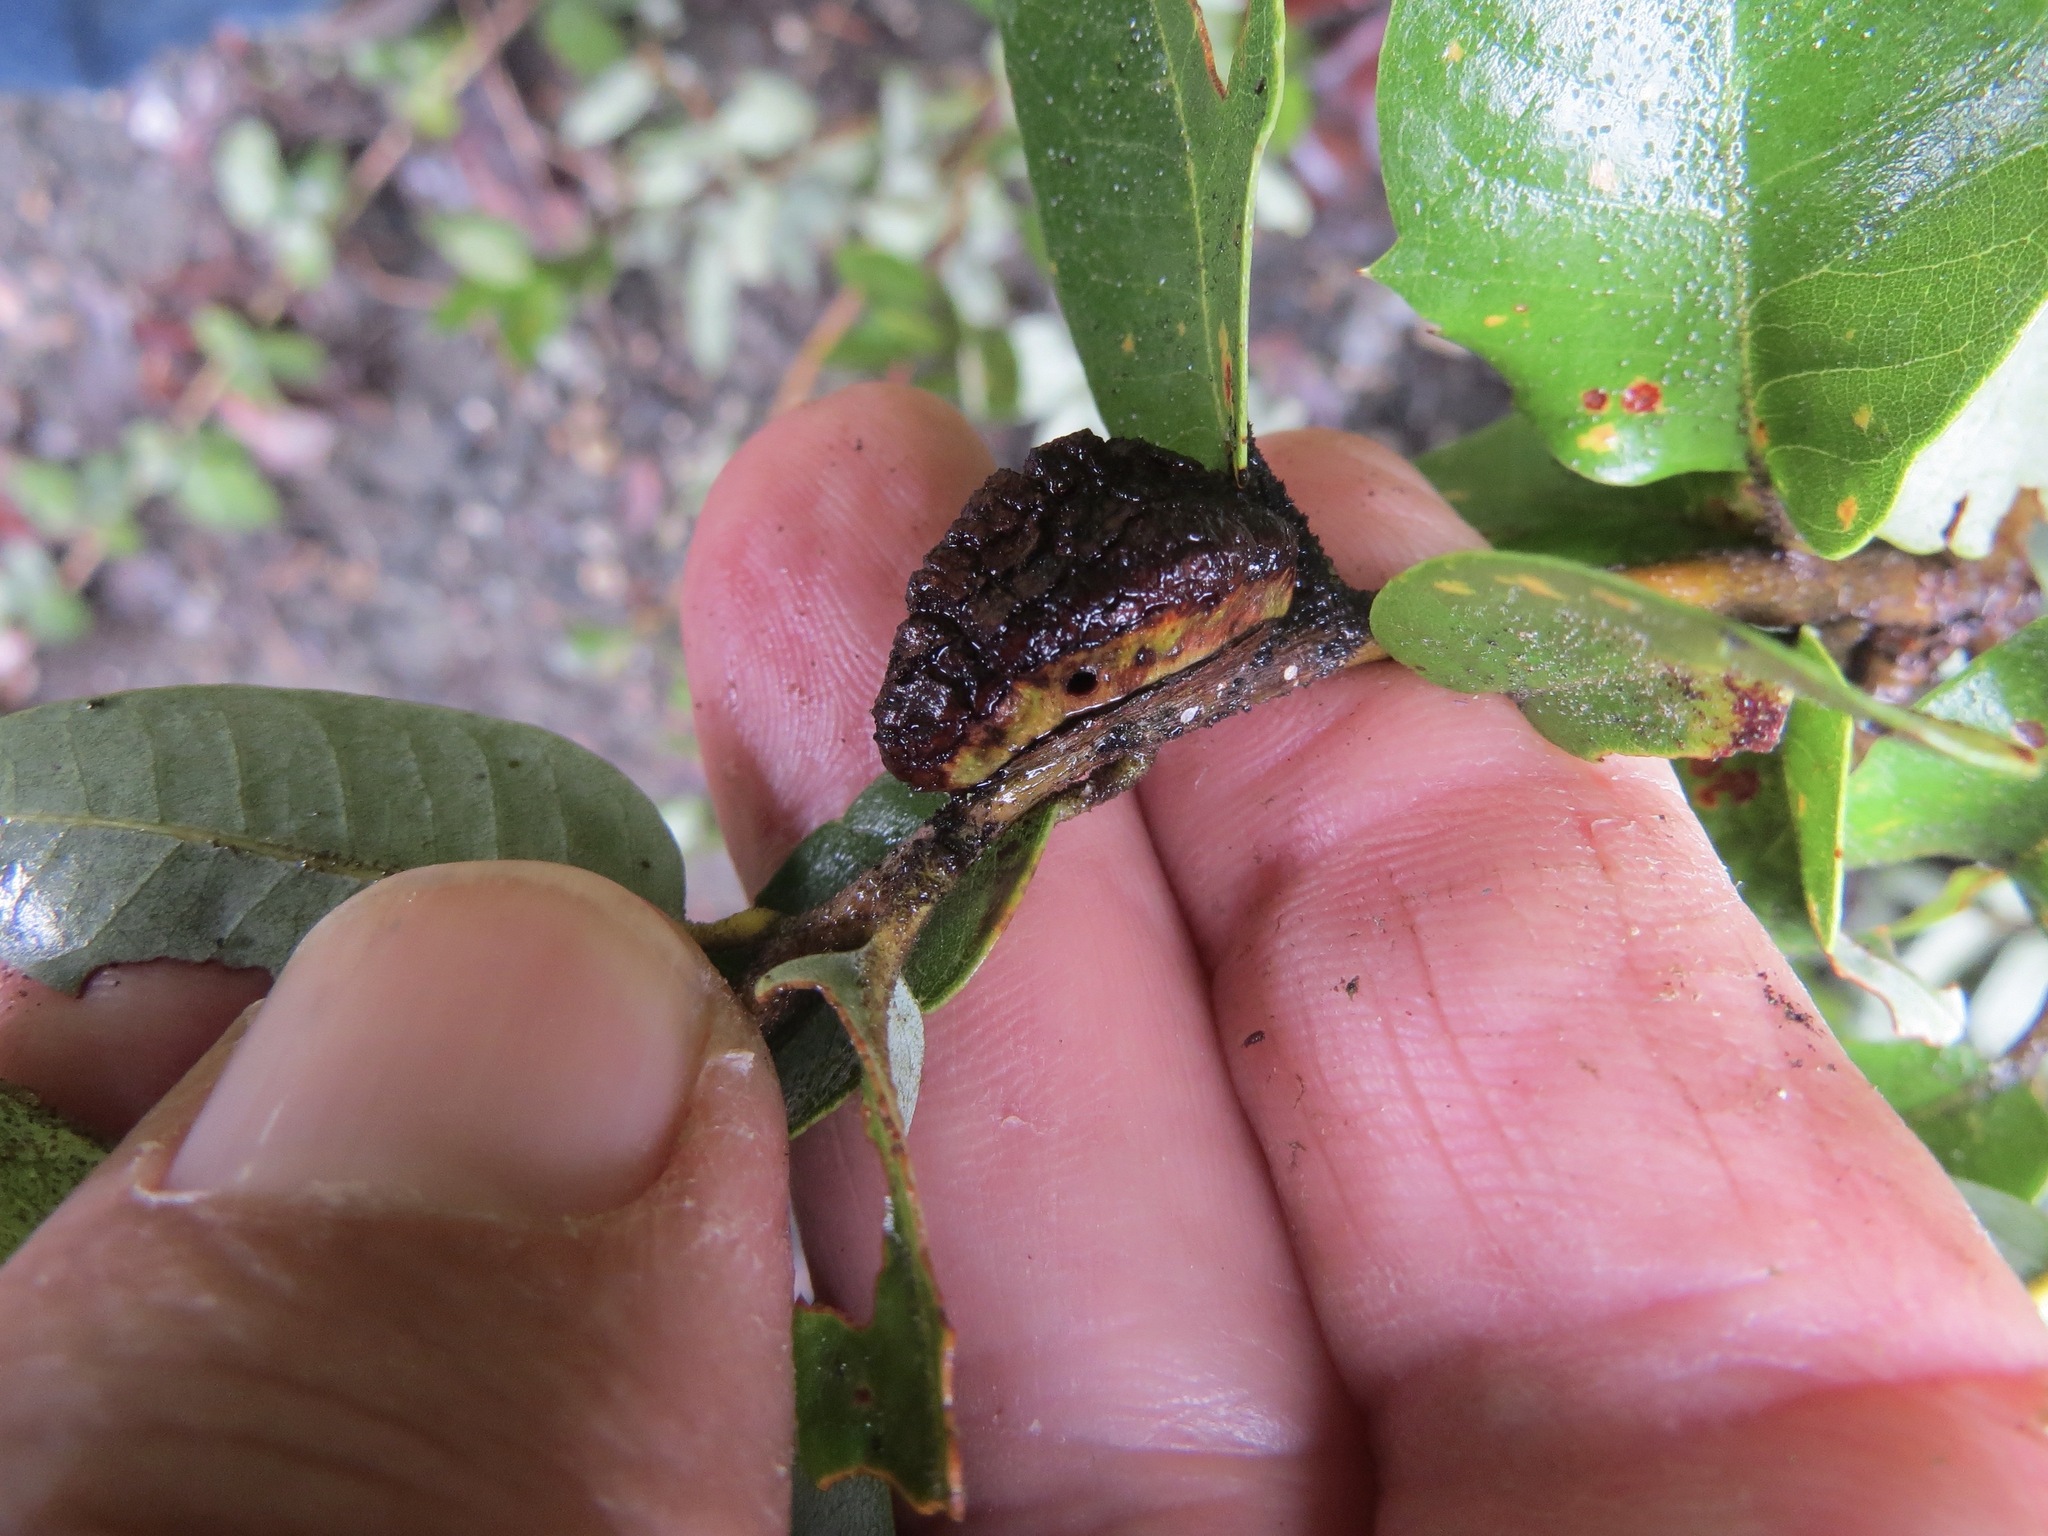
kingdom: Animalia
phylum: Arthropoda
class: Insecta
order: Hymenoptera
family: Cynipidae
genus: Disholandricus
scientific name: Disholandricus
